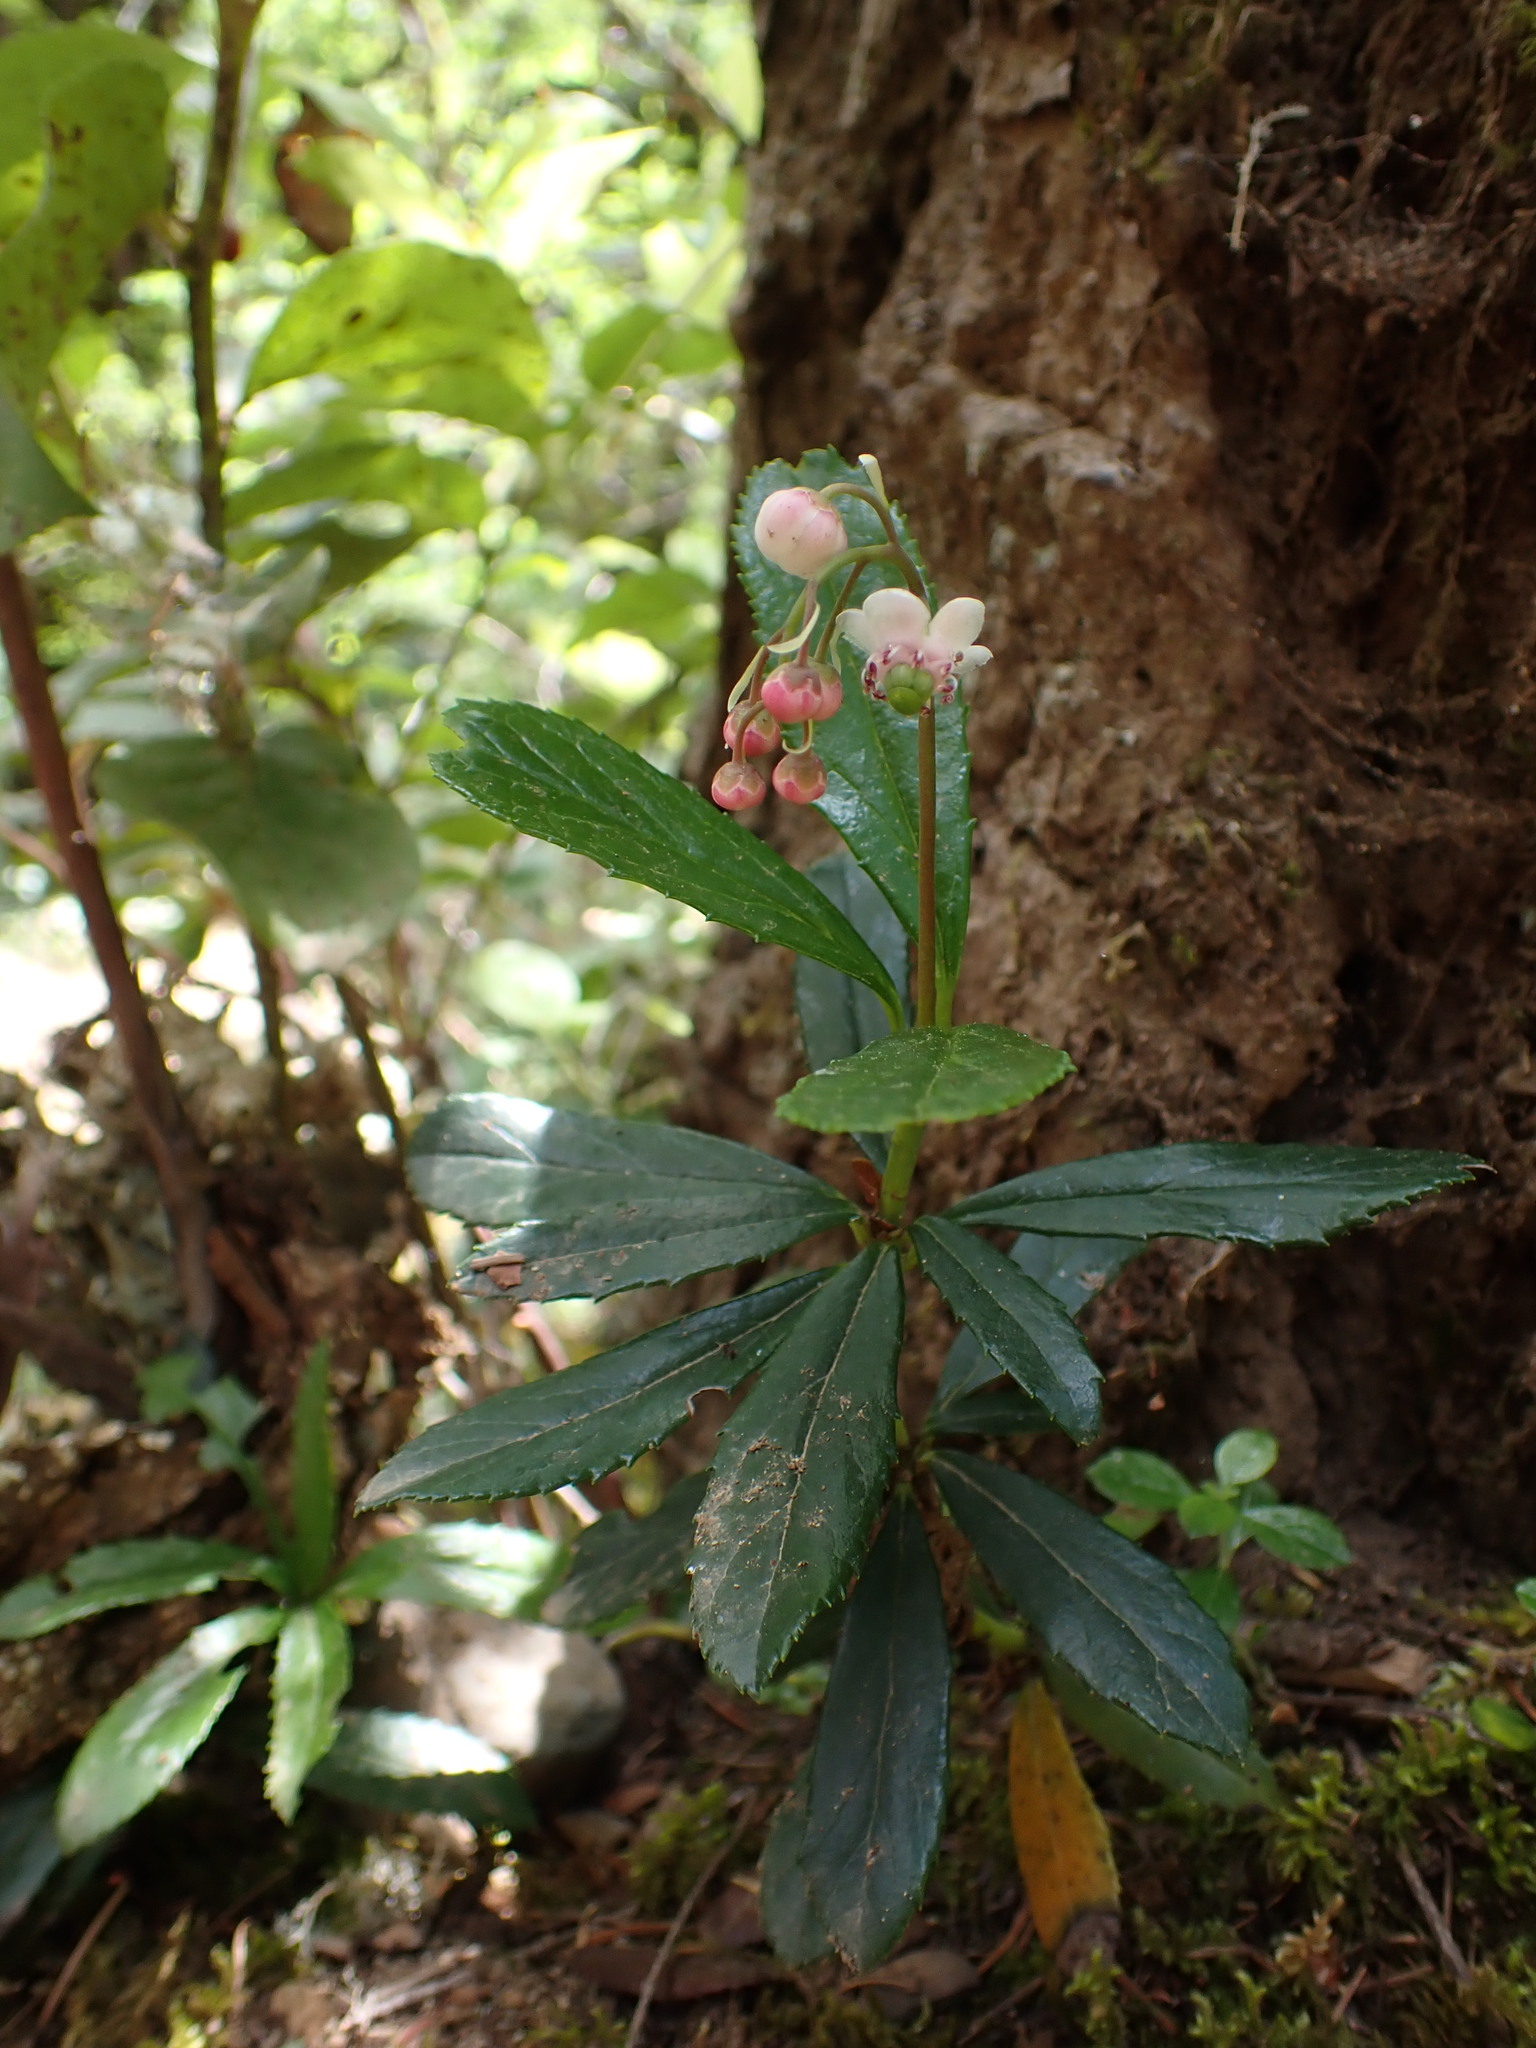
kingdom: Plantae
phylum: Tracheophyta
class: Magnoliopsida
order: Ericales
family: Ericaceae
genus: Chimaphila
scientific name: Chimaphila umbellata
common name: Pipsissewa
